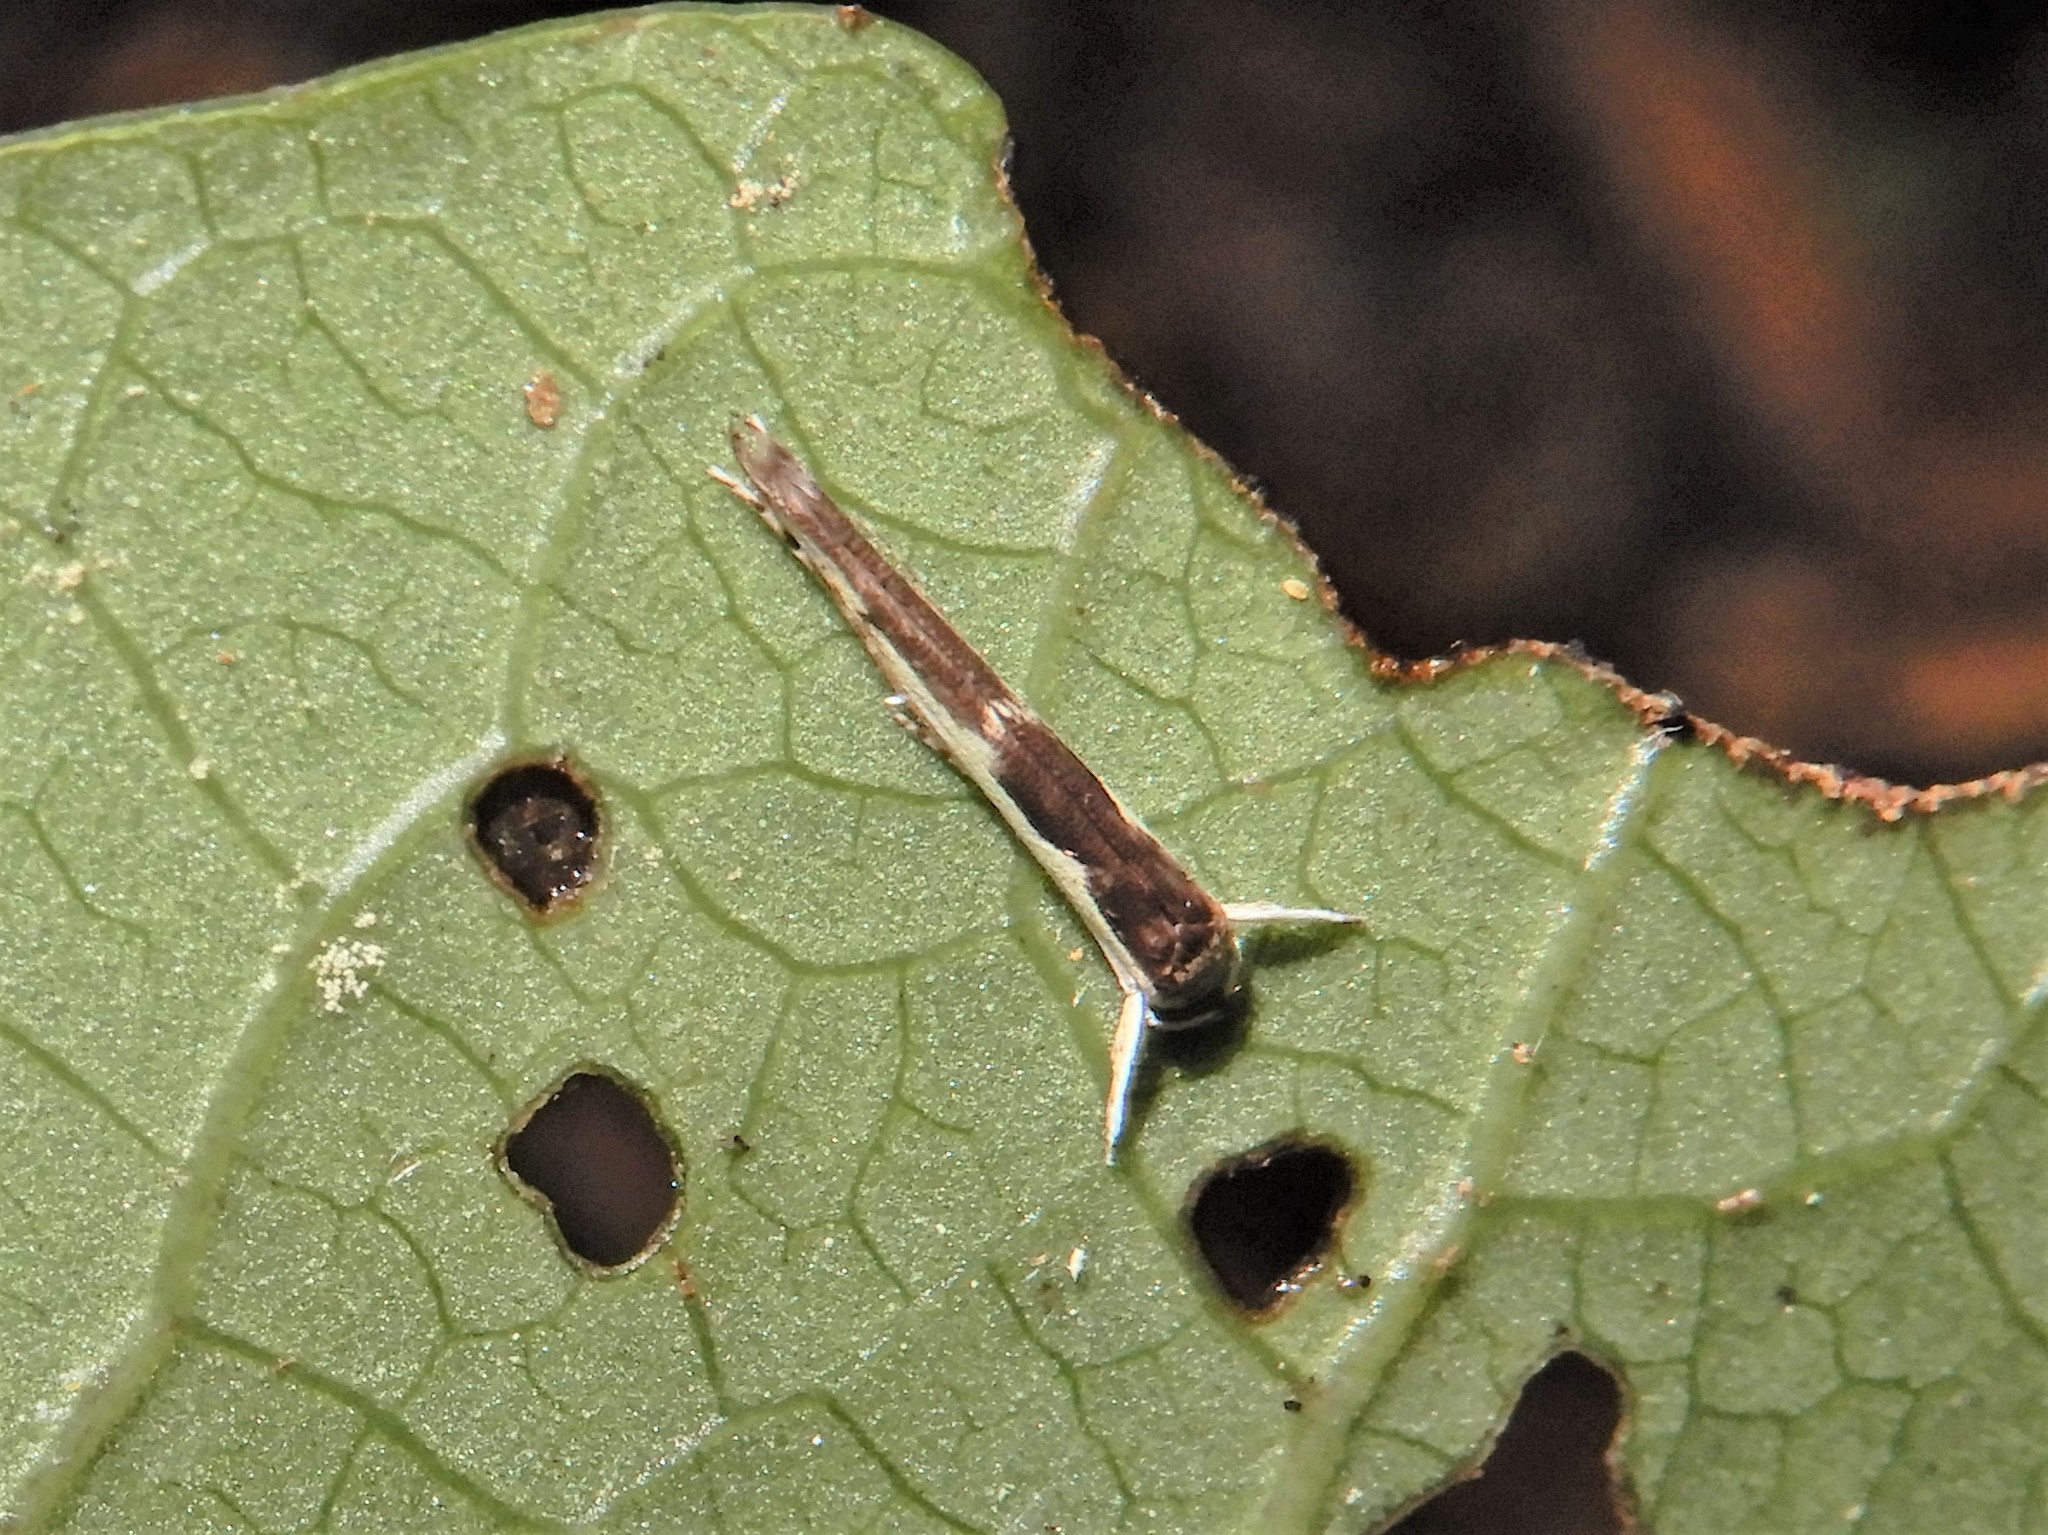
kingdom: Animalia
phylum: Arthropoda
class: Insecta
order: Lepidoptera
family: Roeslerstammiidae
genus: Vanicela
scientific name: Vanicela disjunctella
